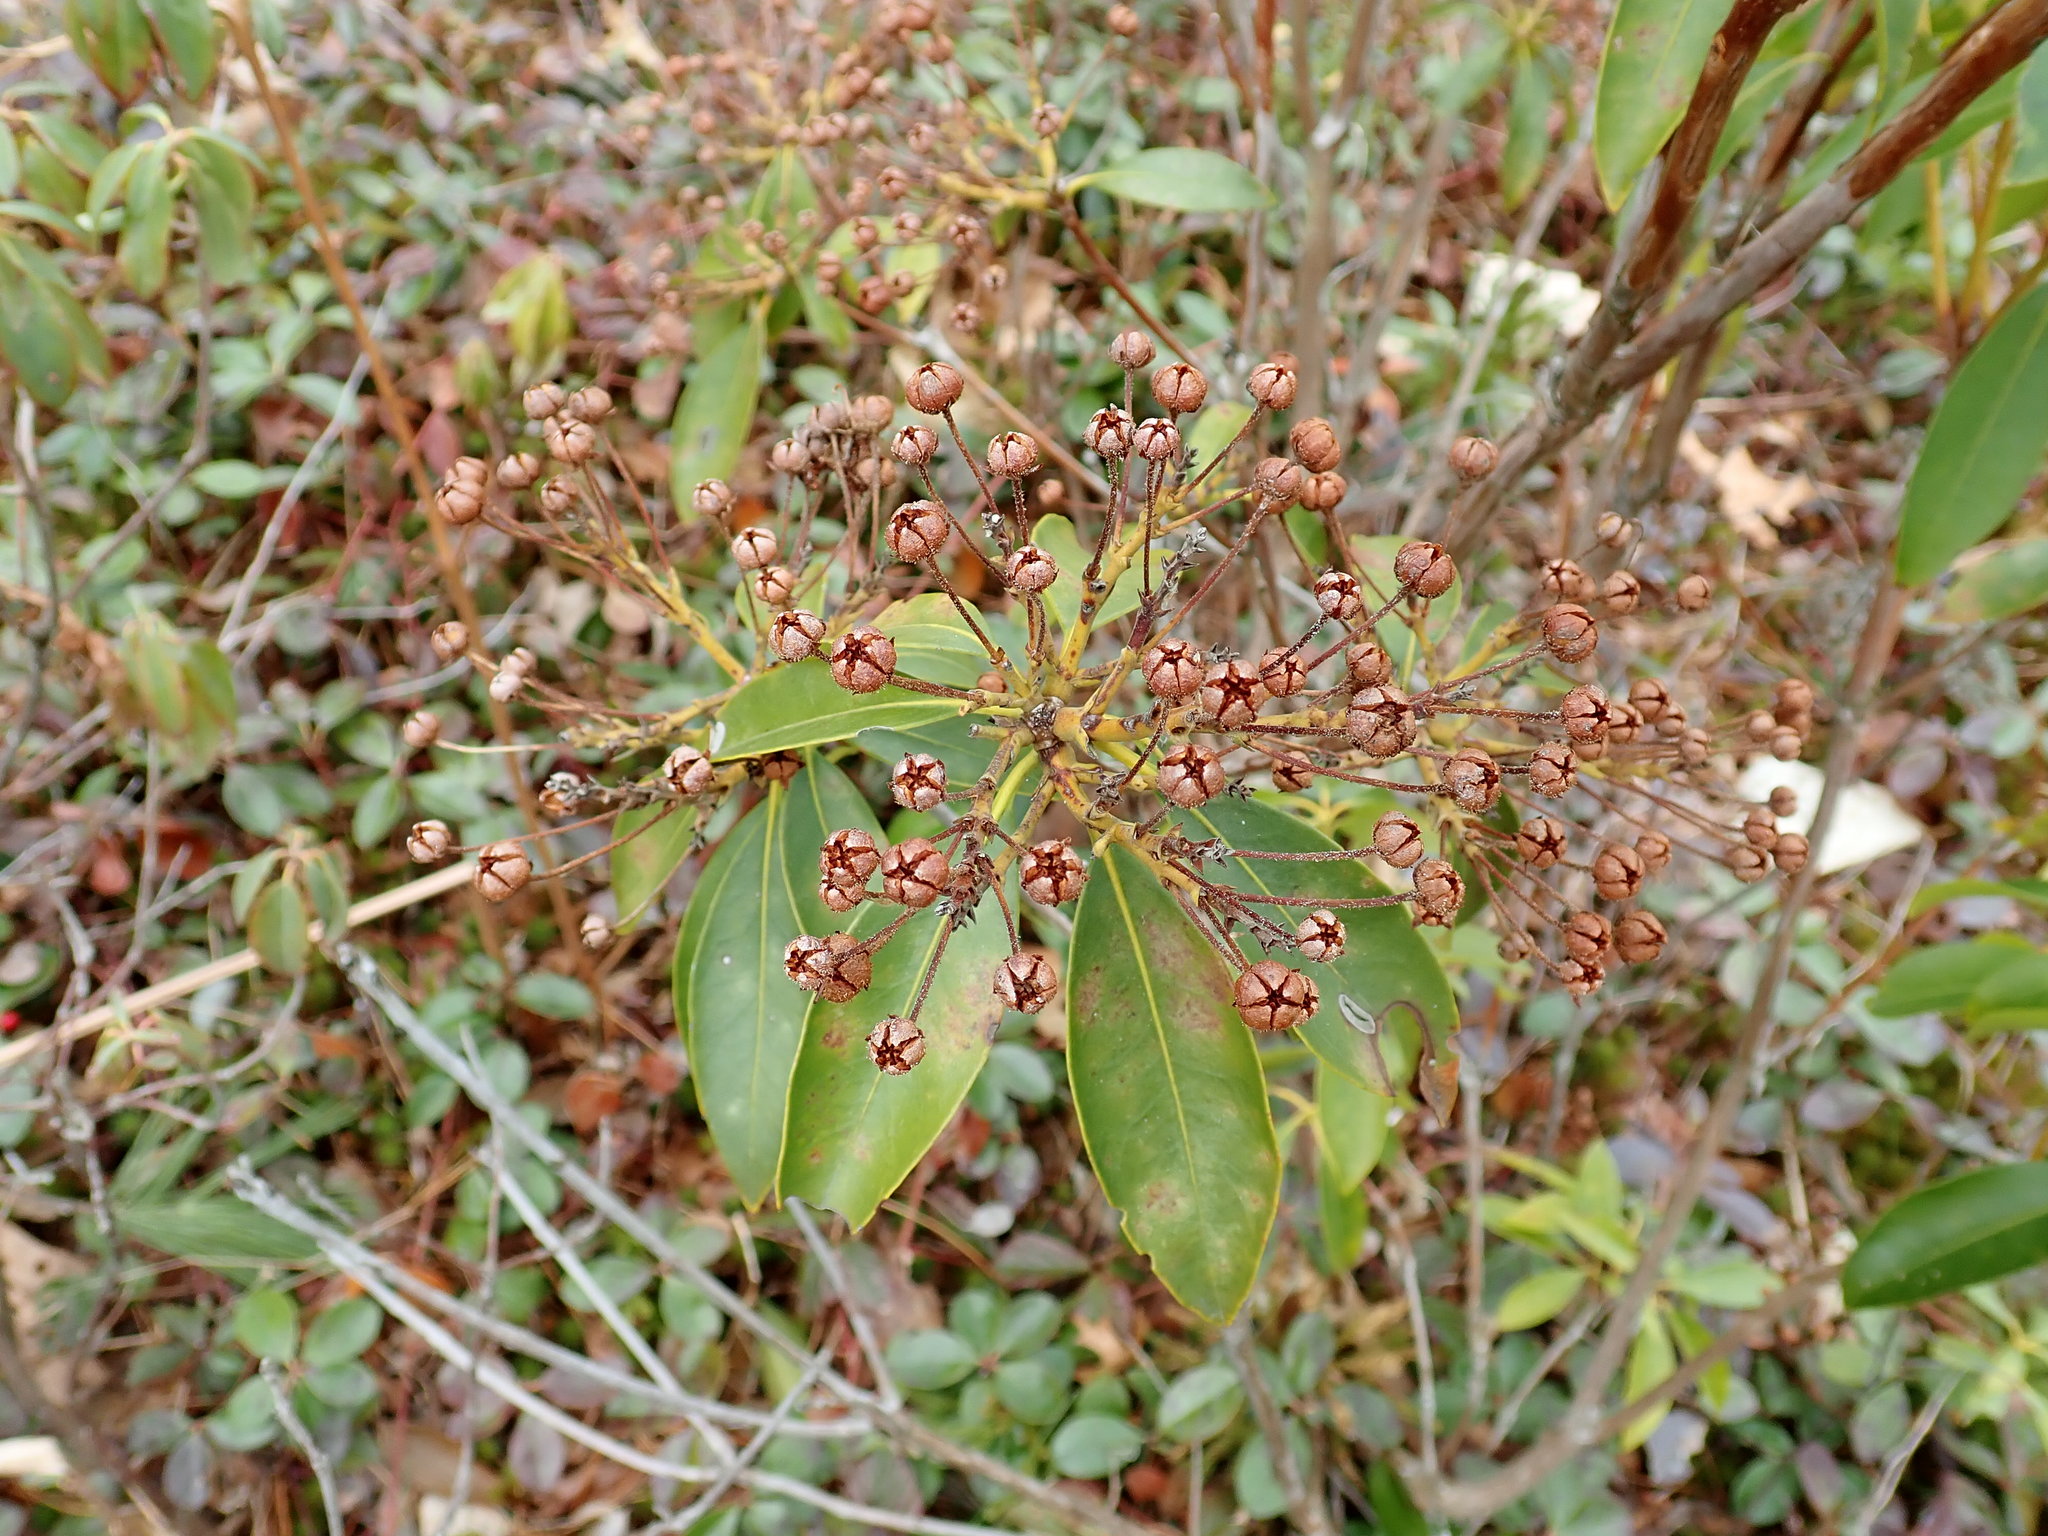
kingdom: Plantae
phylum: Tracheophyta
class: Magnoliopsida
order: Ericales
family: Ericaceae
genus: Kalmia
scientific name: Kalmia latifolia
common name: Mountain-laurel
